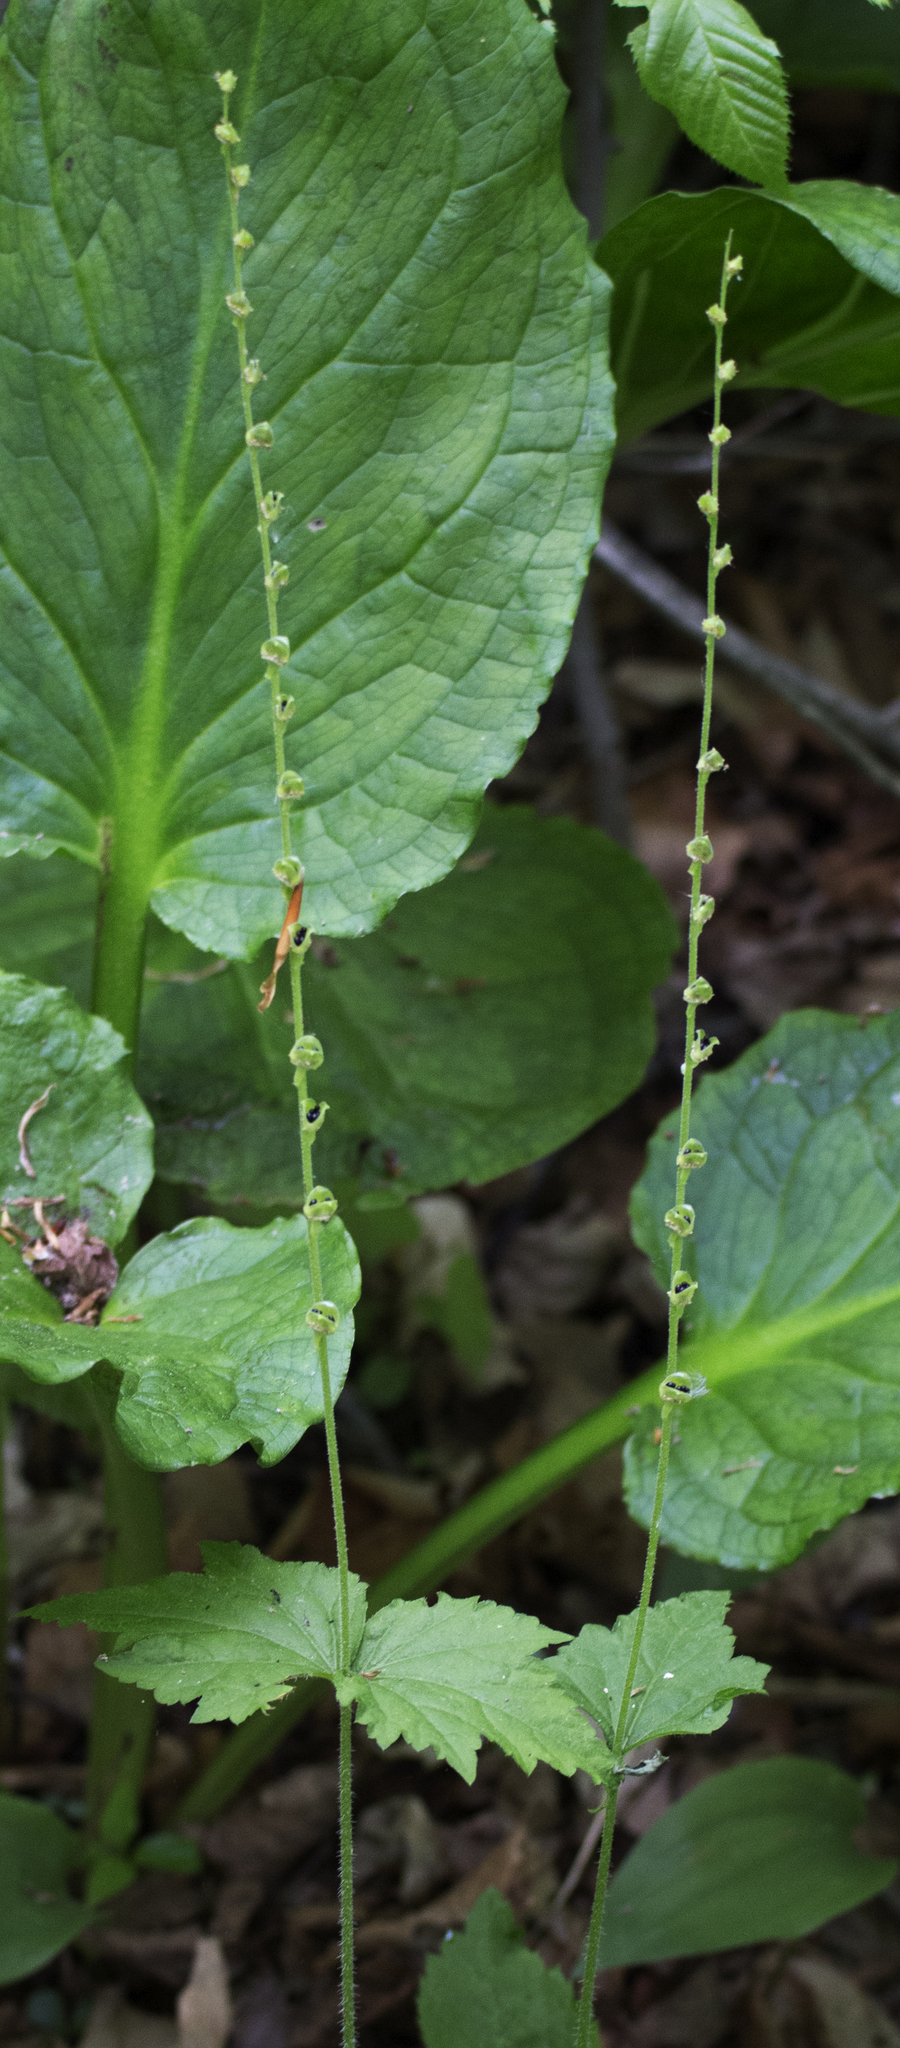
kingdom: Plantae
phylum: Tracheophyta
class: Magnoliopsida
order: Saxifragales
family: Saxifragaceae
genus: Mitella
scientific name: Mitella diphylla
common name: Coolwort
